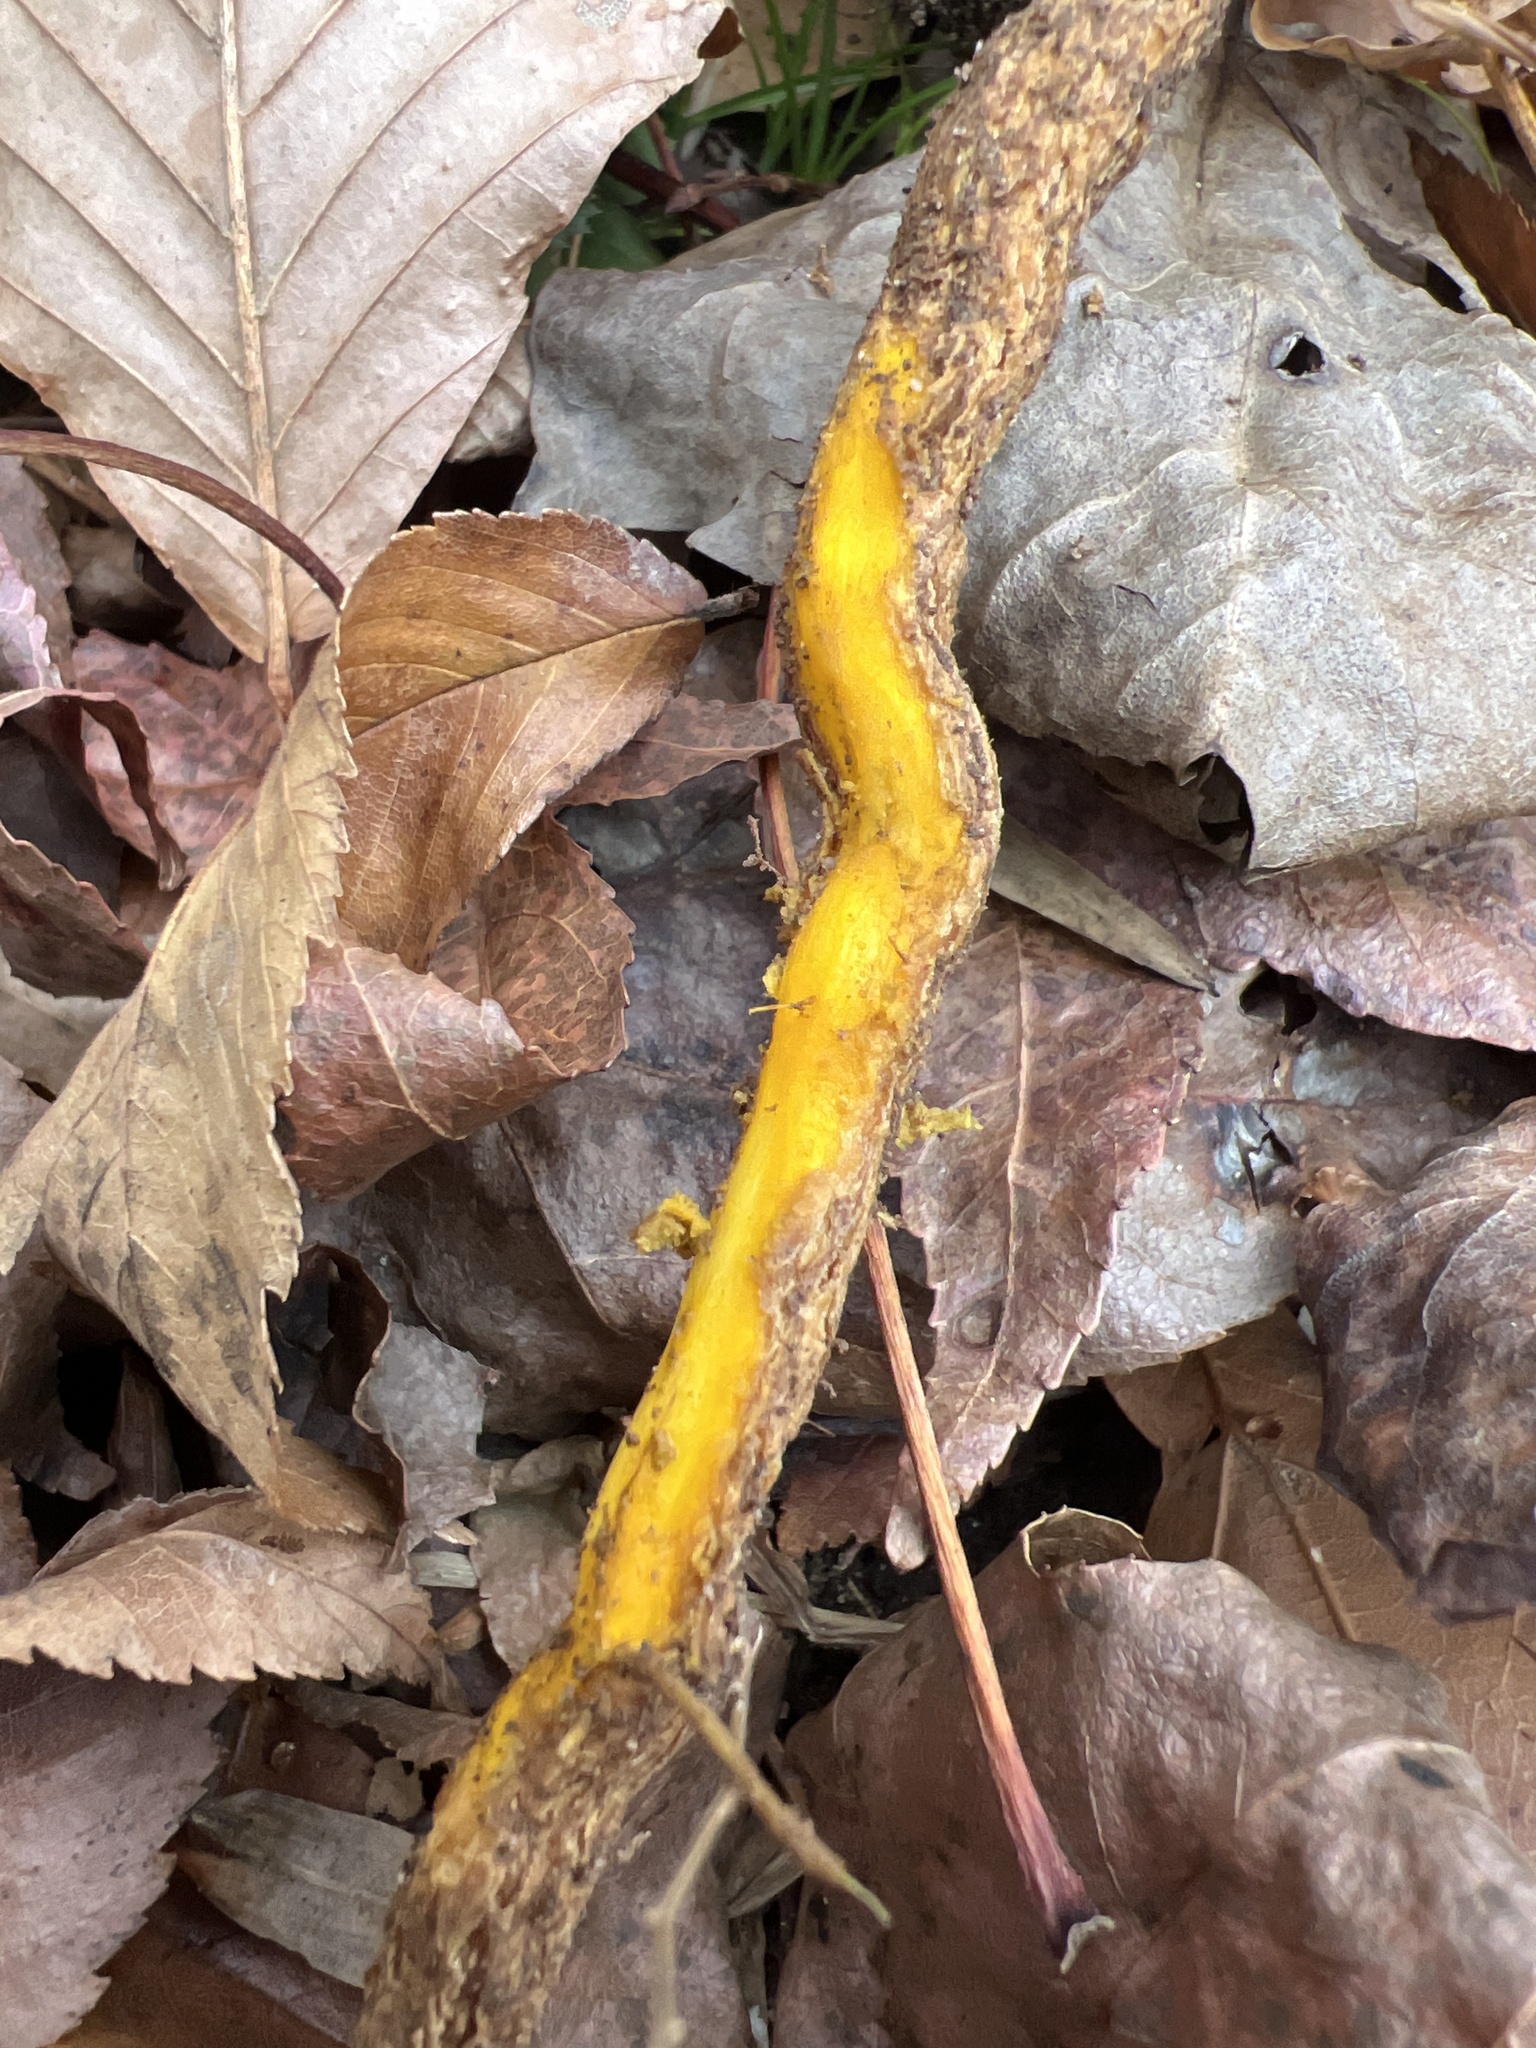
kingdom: Plantae
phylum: Tracheophyta
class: Magnoliopsida
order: Ranunculales
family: Berberidaceae
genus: Mahonia
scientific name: Mahonia bealei
